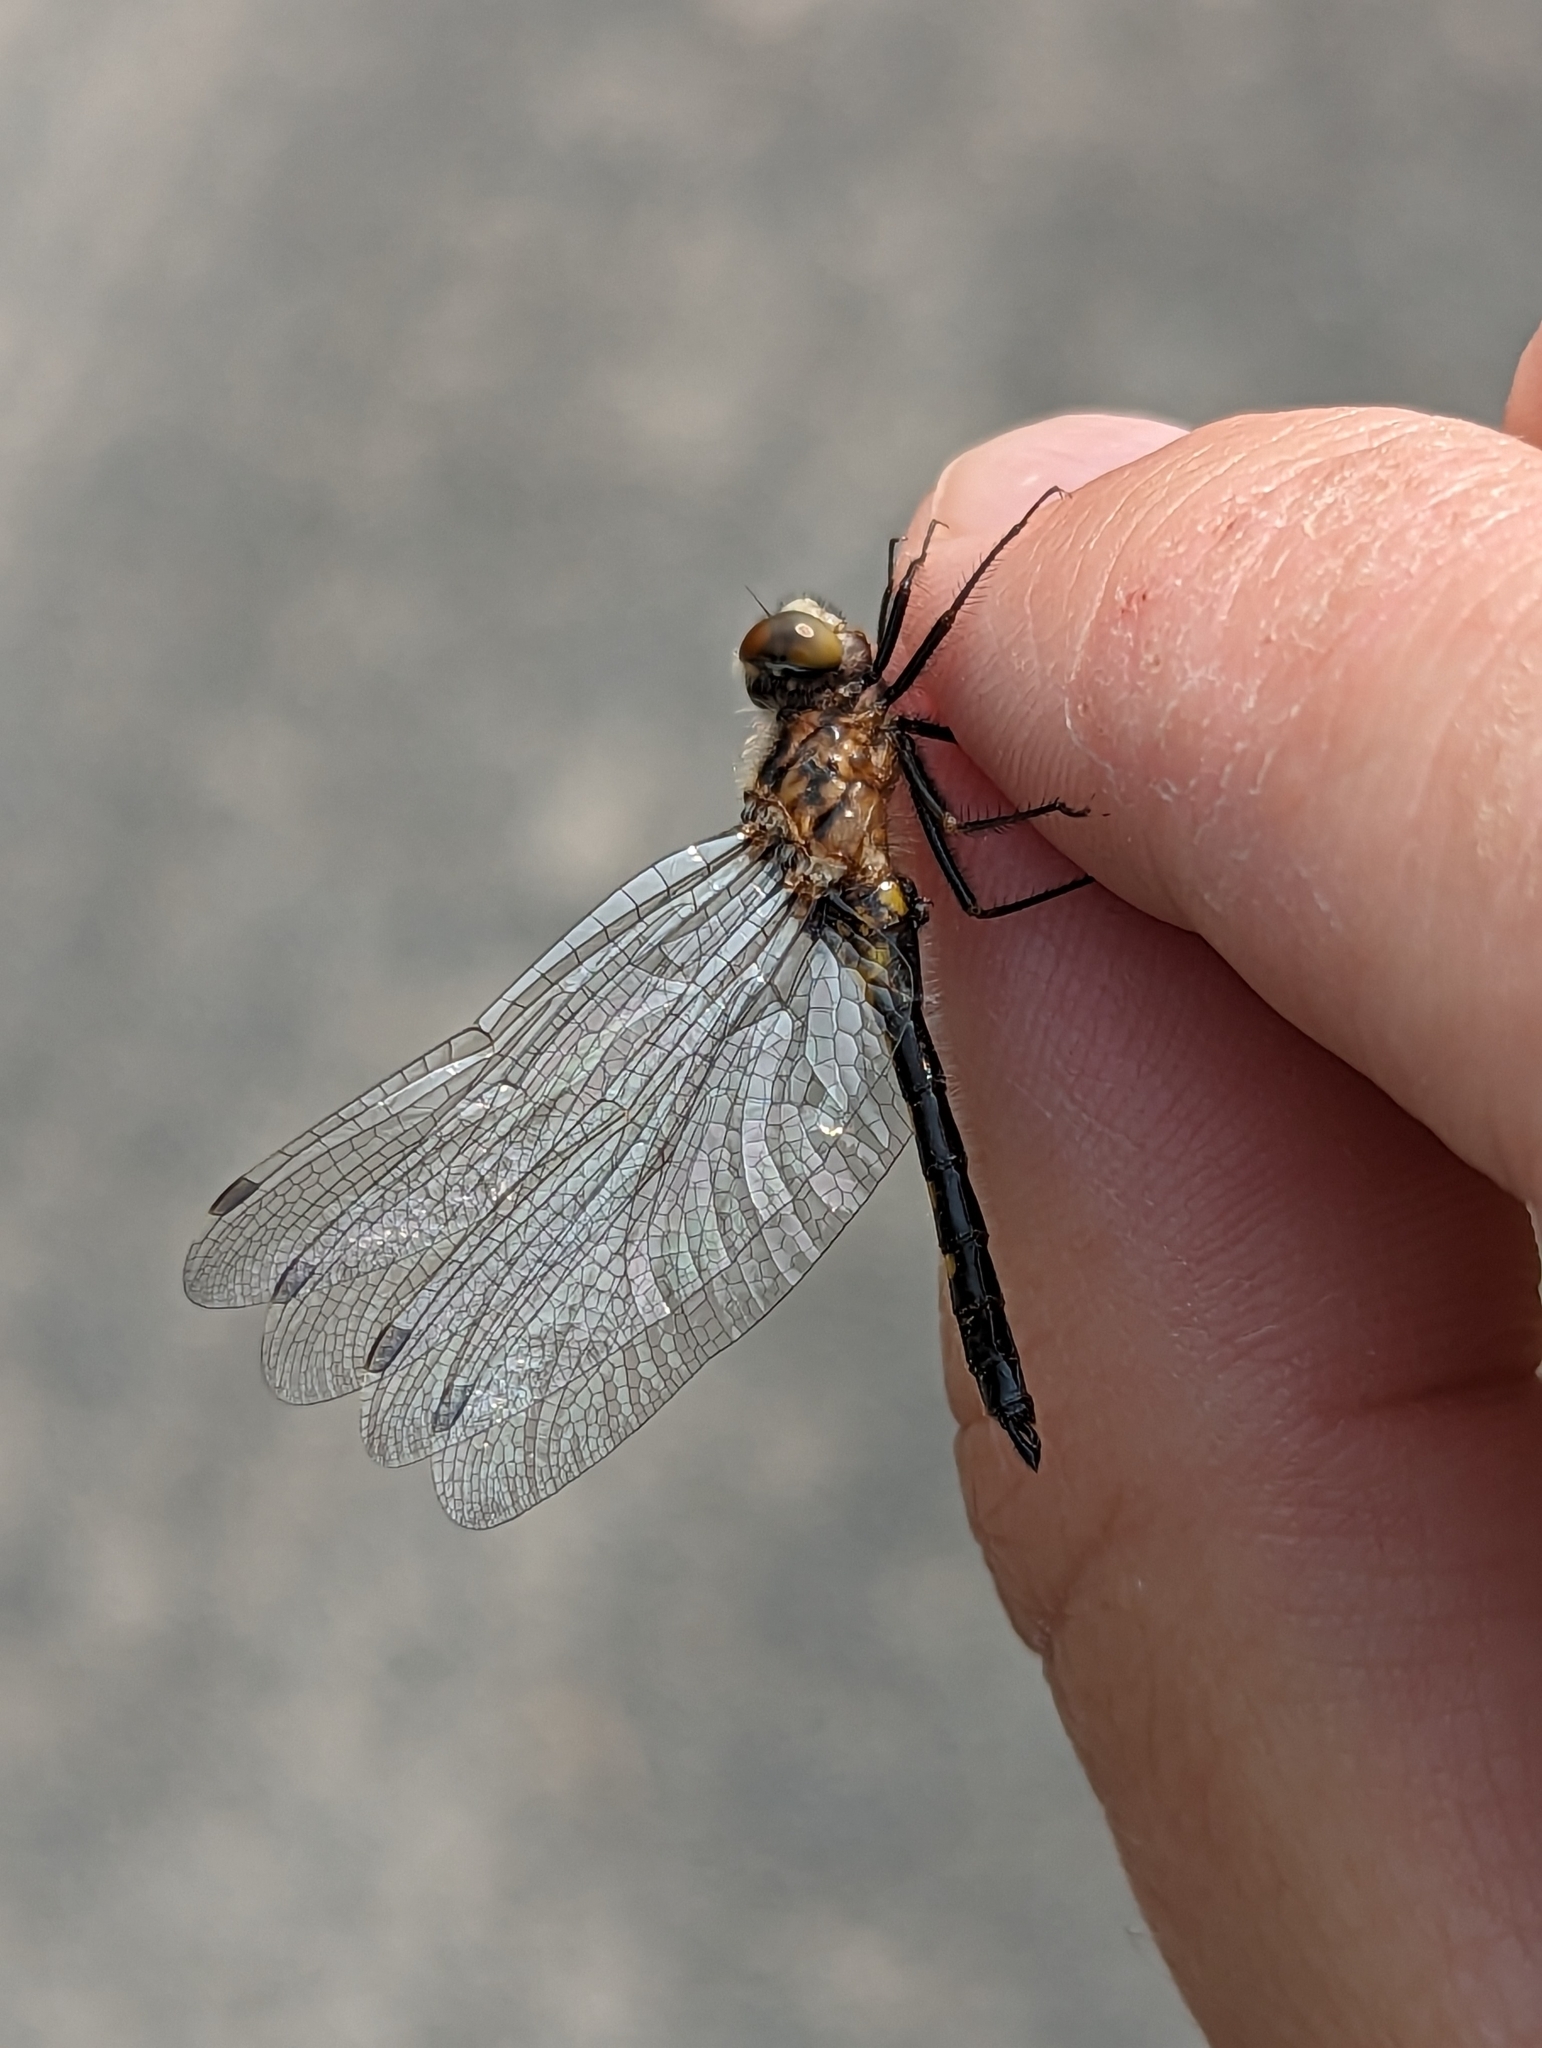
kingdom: Animalia
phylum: Arthropoda
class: Insecta
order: Odonata
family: Libellulidae
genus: Leucorrhinia
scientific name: Leucorrhinia hudsonica
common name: Hudsonian whiteface
